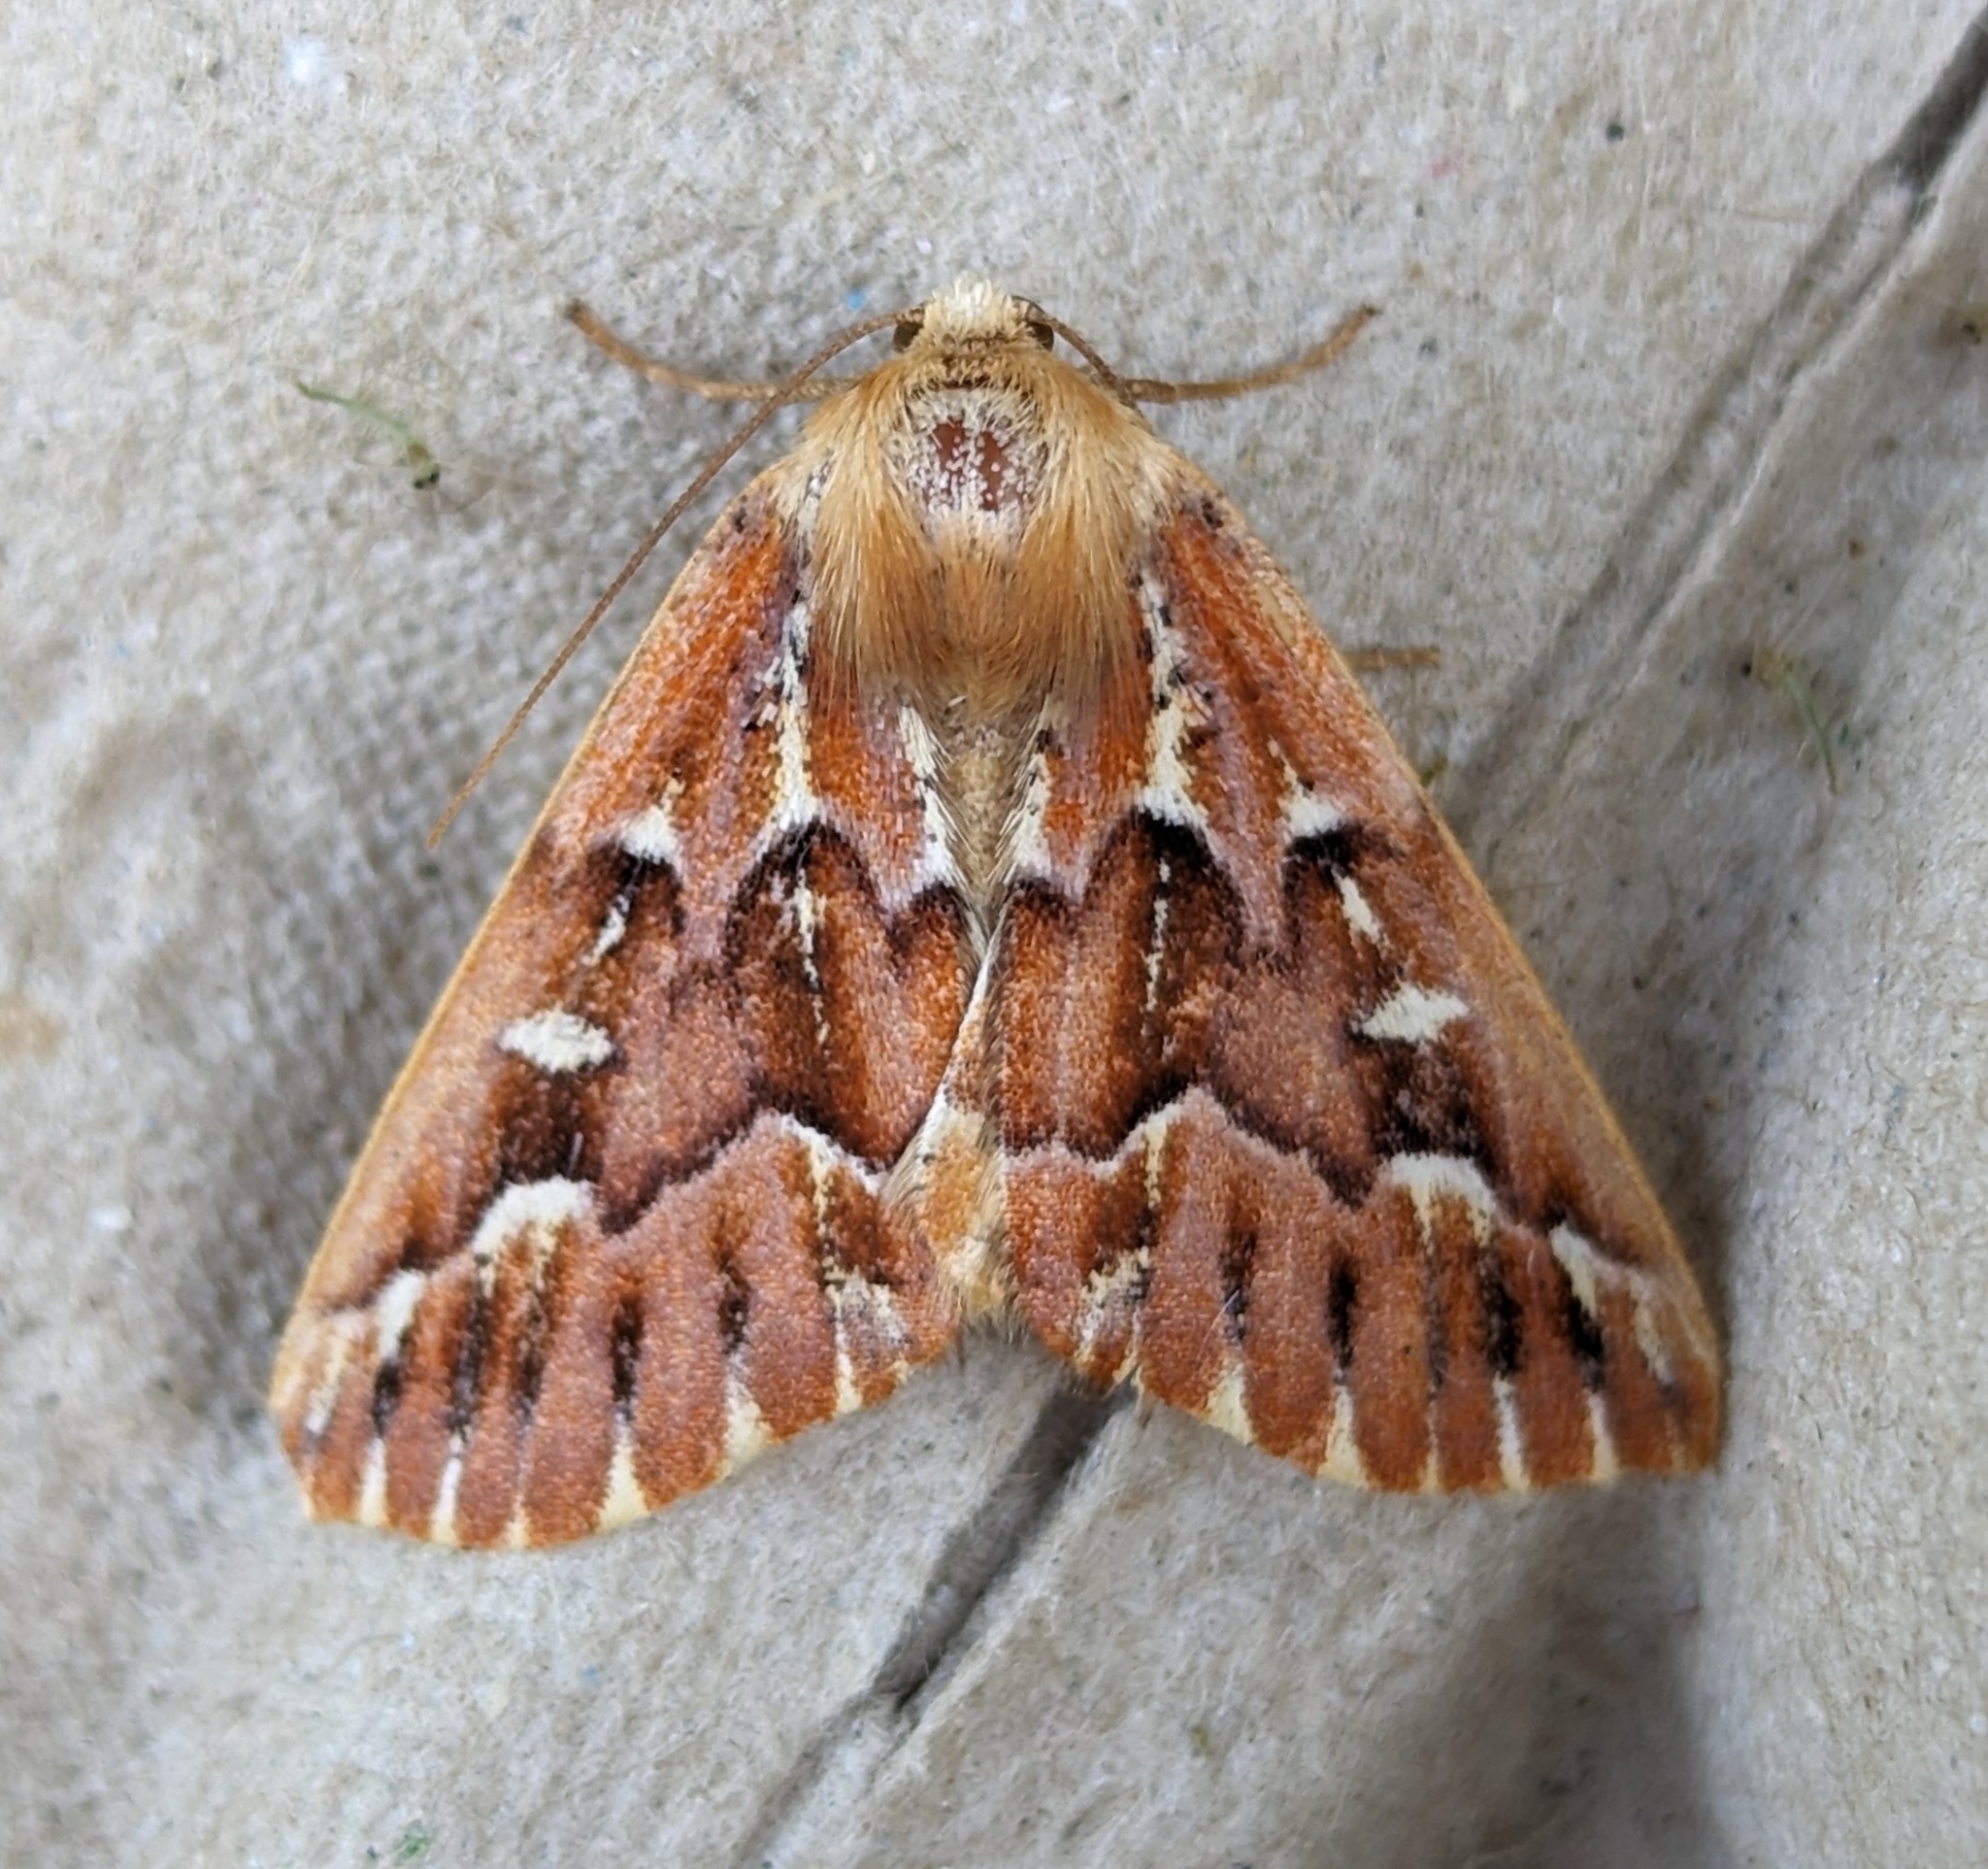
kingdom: Animalia
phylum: Arthropoda
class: Insecta
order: Lepidoptera
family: Geometridae
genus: Caripeta
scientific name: Caripeta aequaliaria
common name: Red girdle moth
